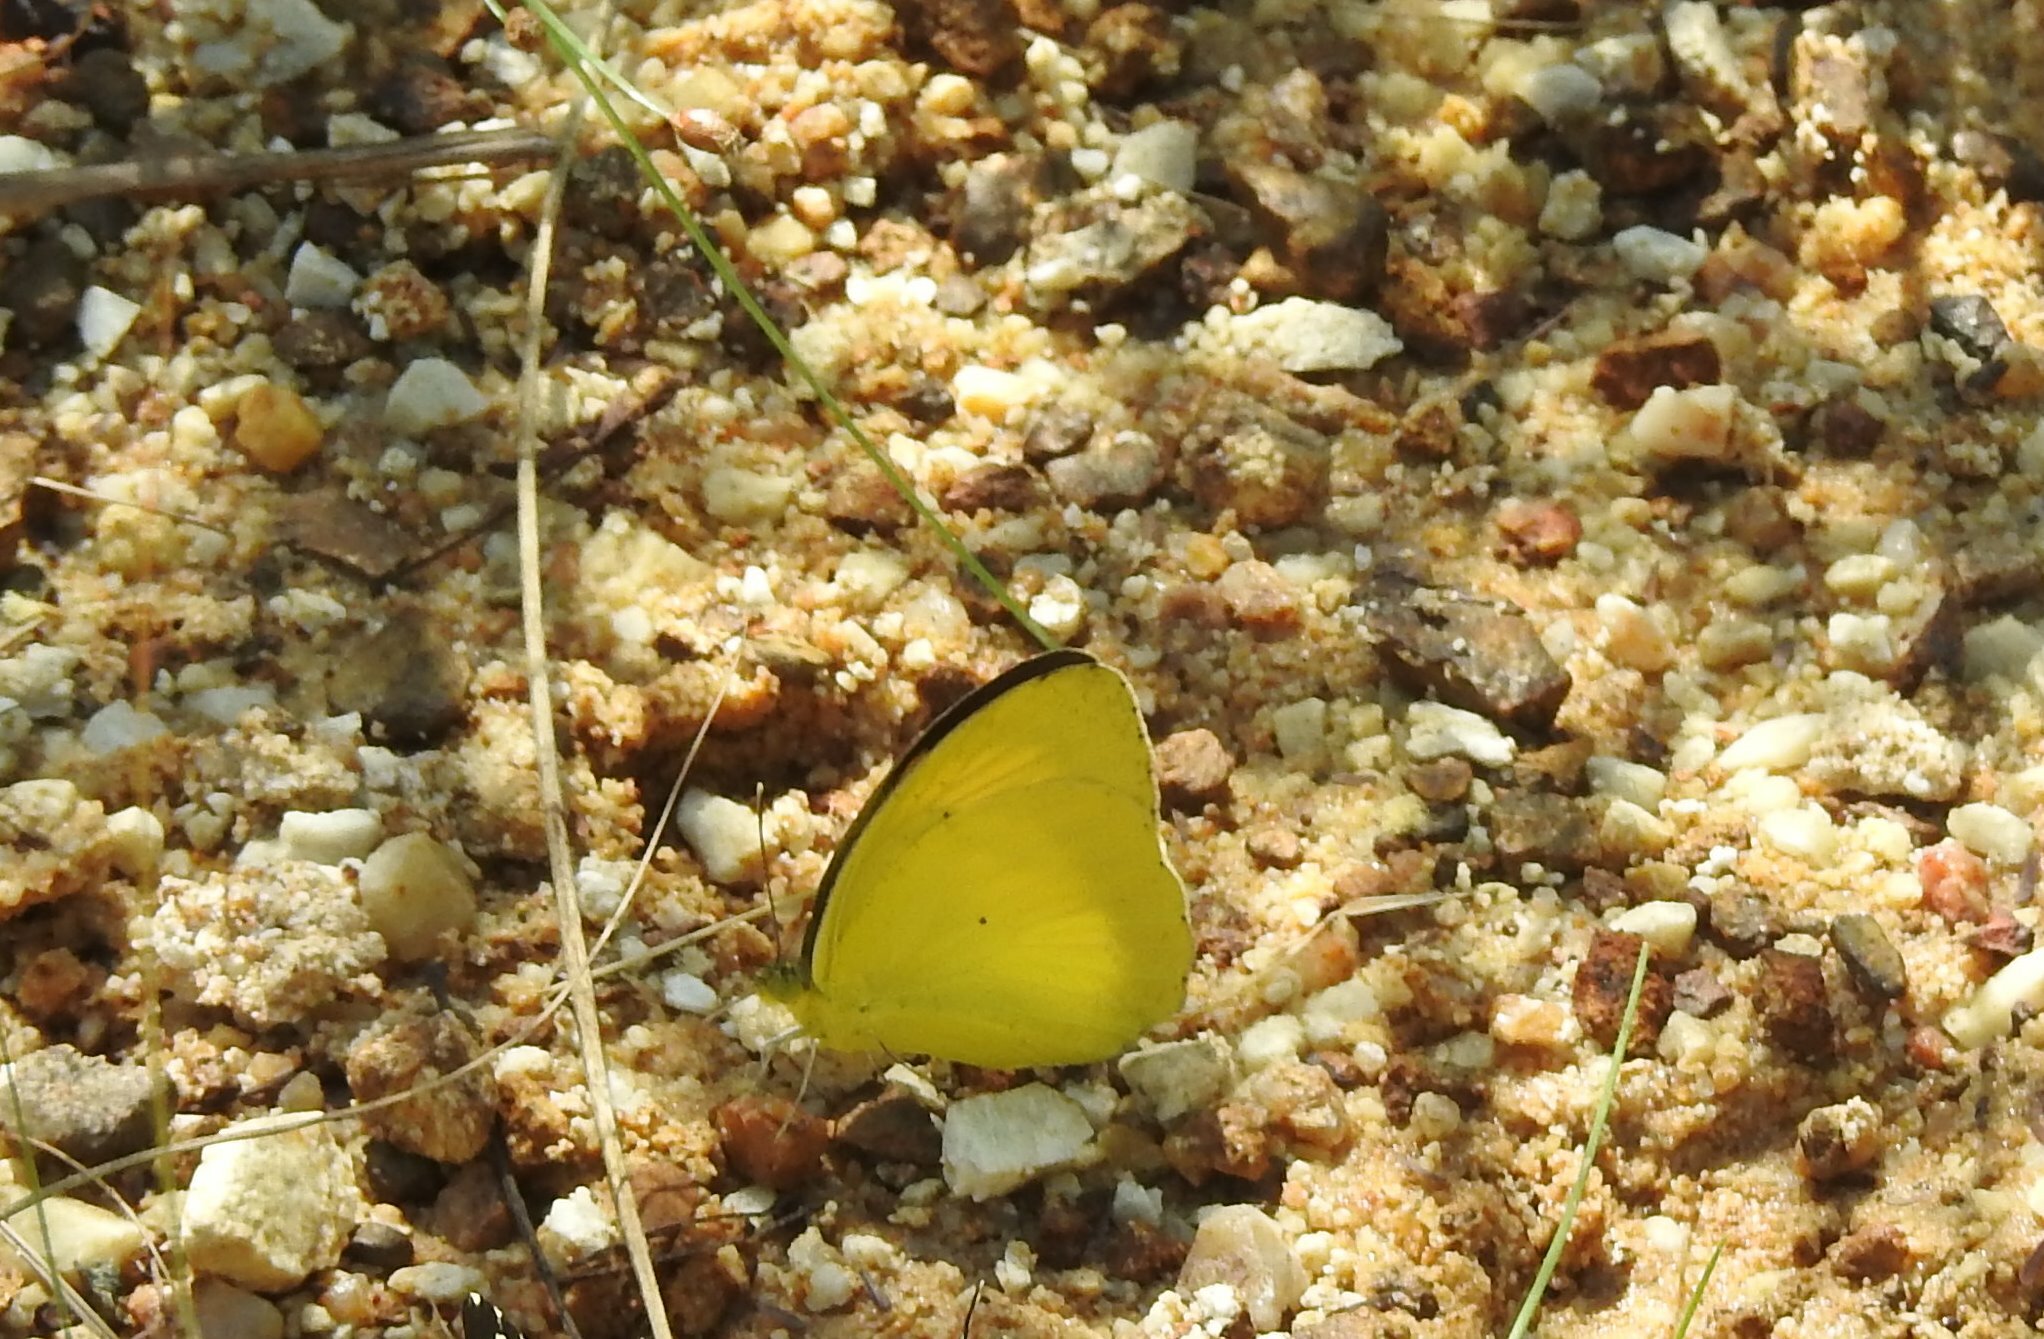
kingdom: Animalia
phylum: Arthropoda
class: Insecta
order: Lepidoptera
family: Pieridae
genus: Ixias
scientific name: Ixias pyrene
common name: Yellow orange tip
